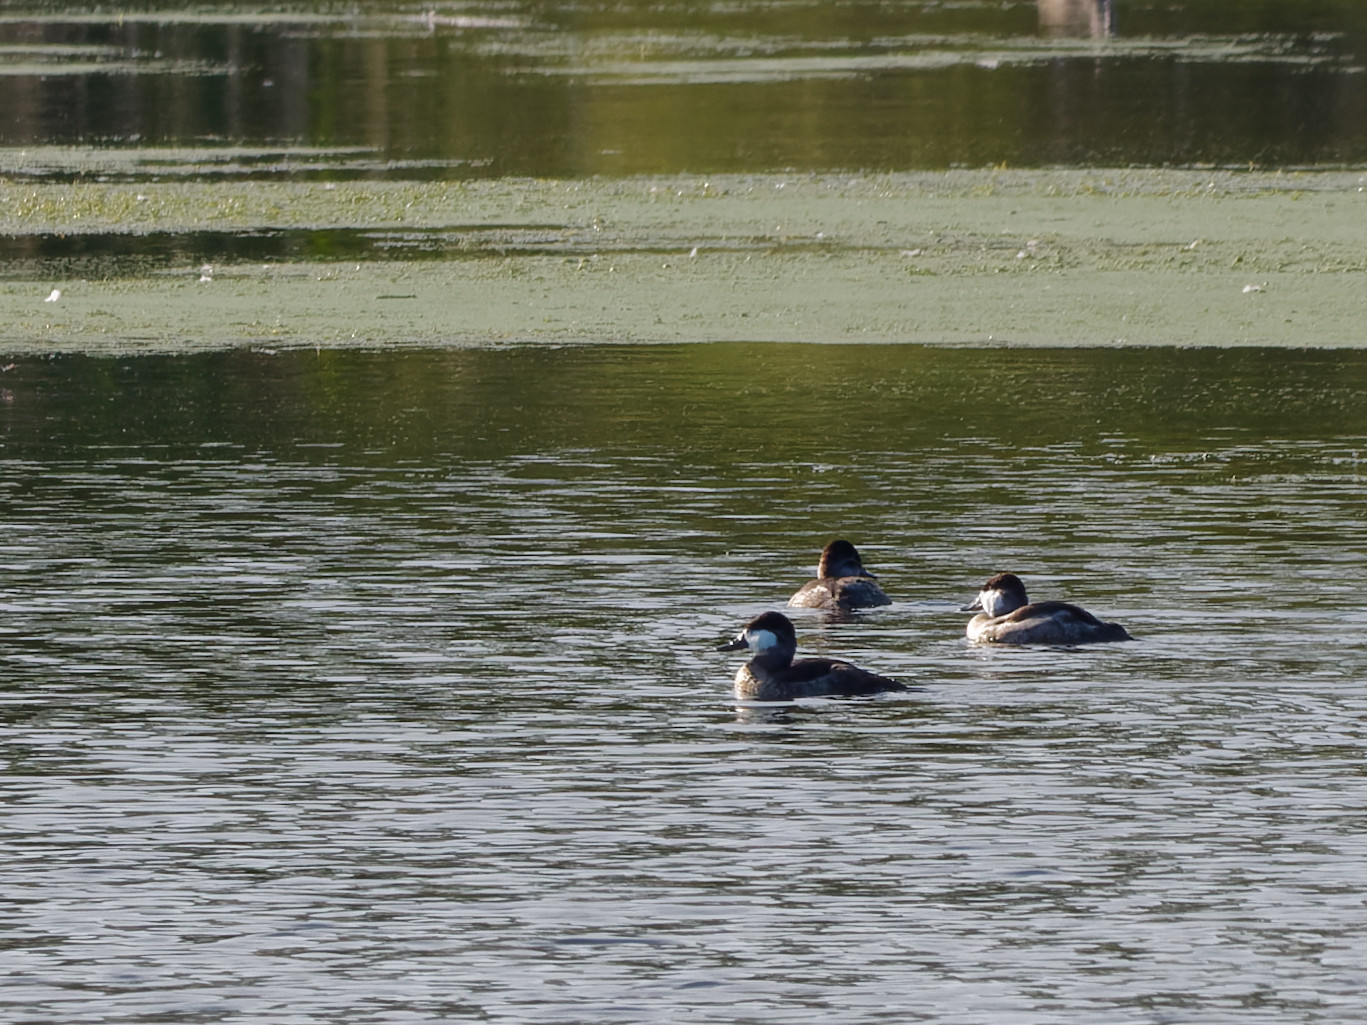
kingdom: Animalia
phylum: Chordata
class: Aves
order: Anseriformes
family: Anatidae
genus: Oxyura
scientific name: Oxyura jamaicensis
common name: Ruddy duck
